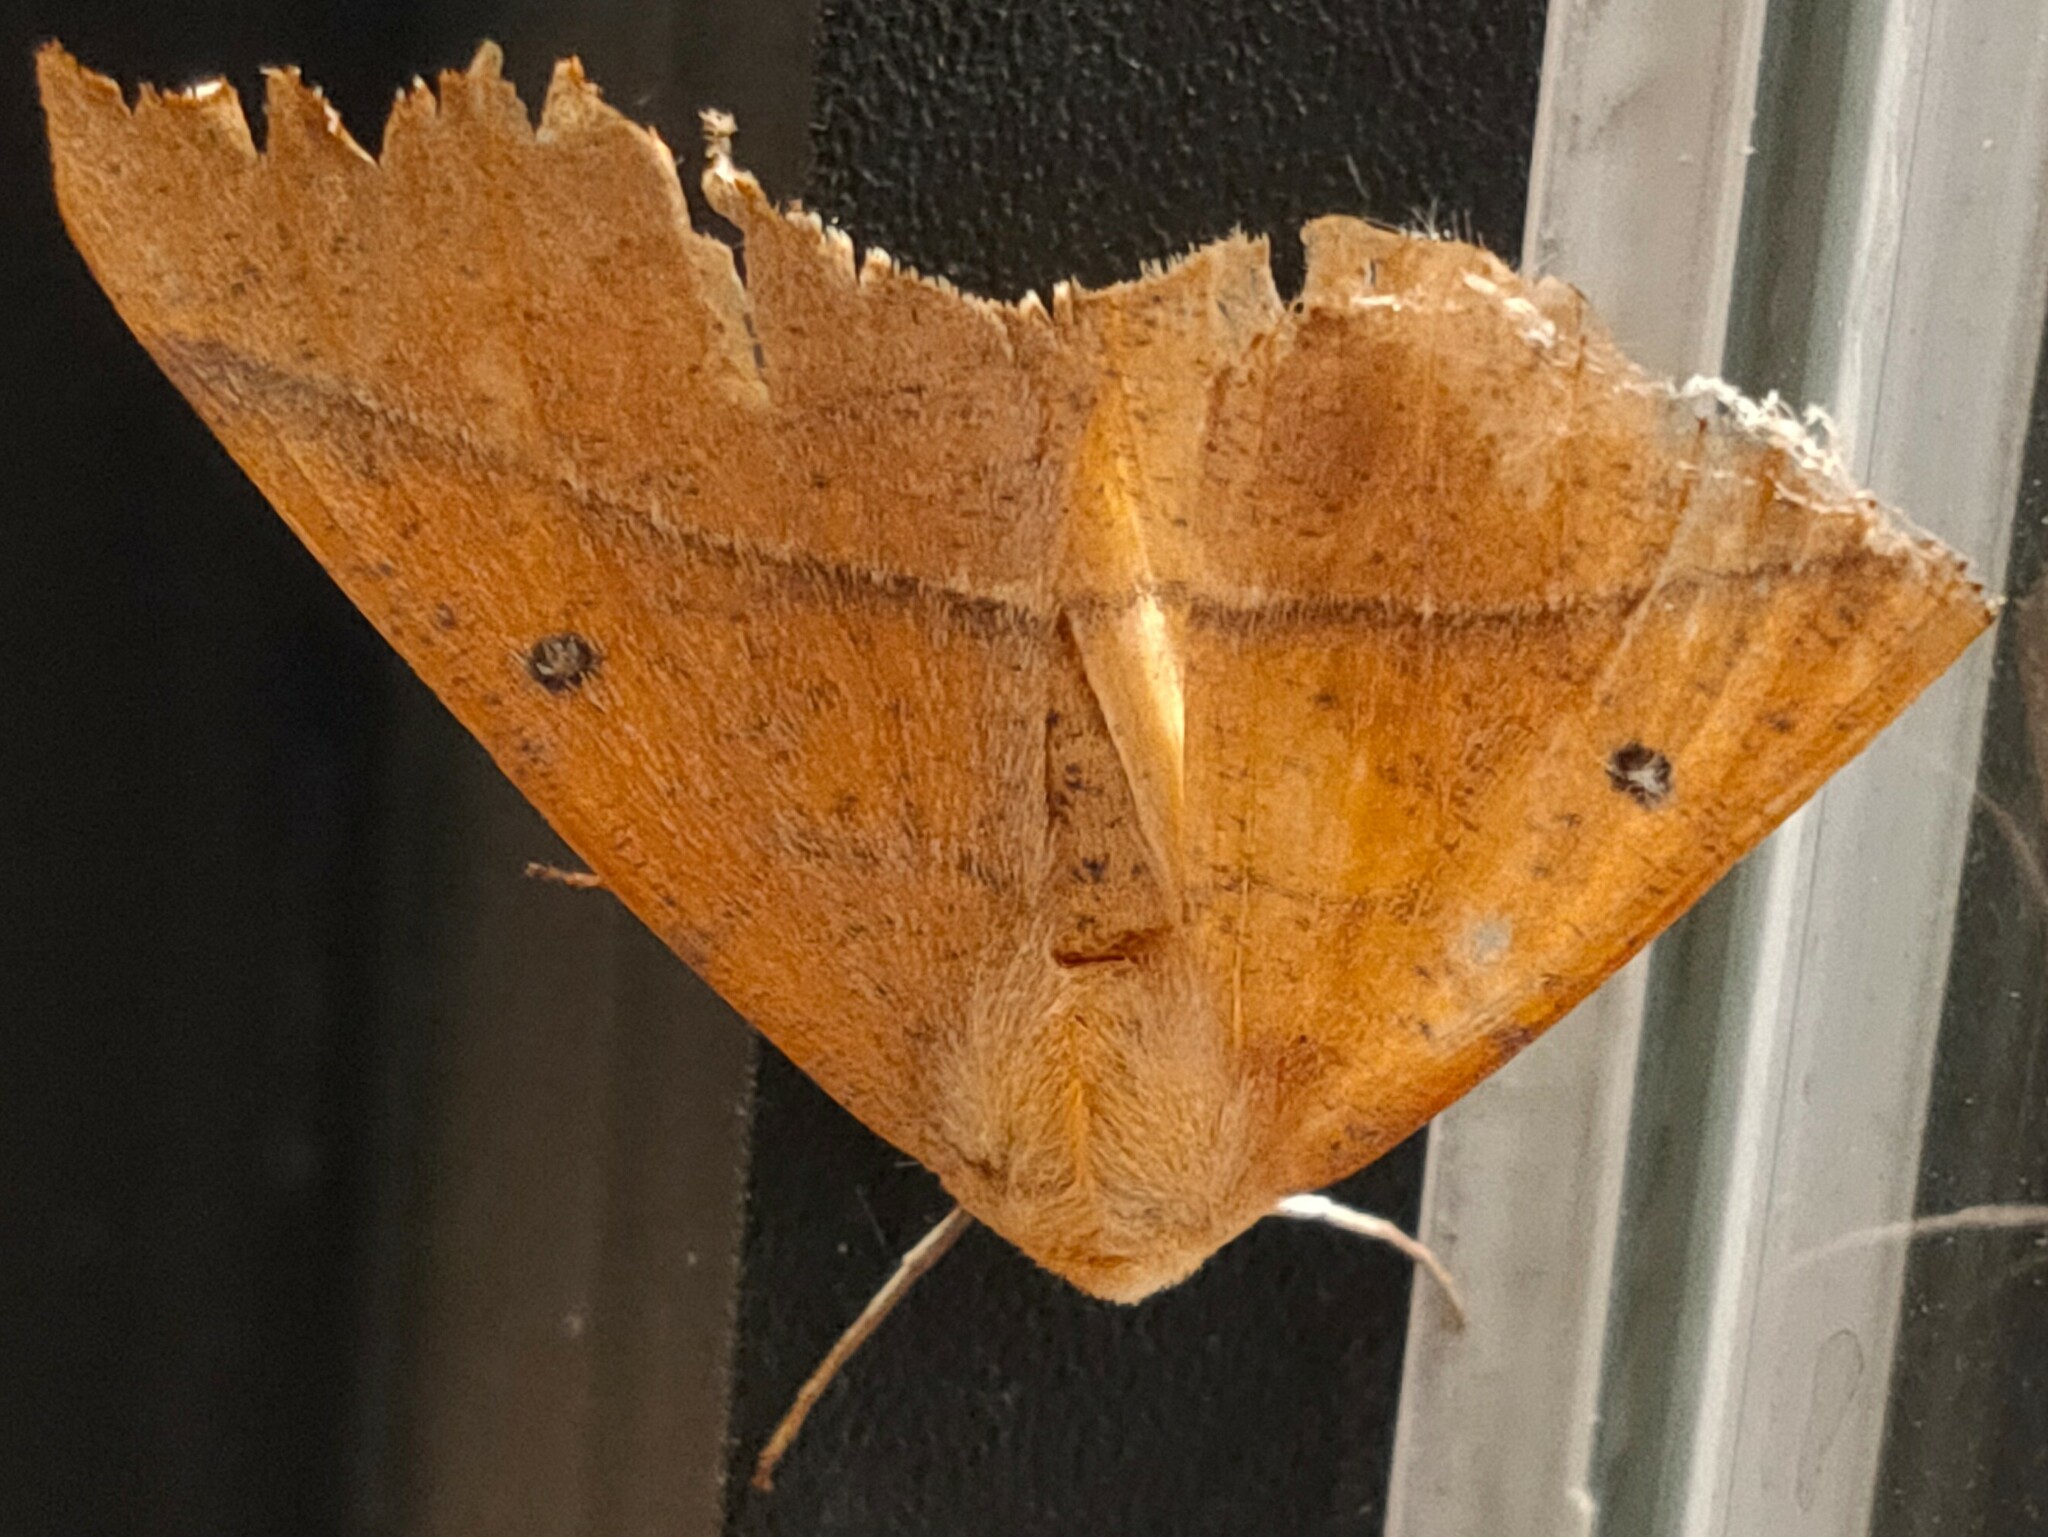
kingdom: Animalia
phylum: Arthropoda
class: Insecta
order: Lepidoptera
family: Geometridae
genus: Odontopera
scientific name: Odontopera arida
